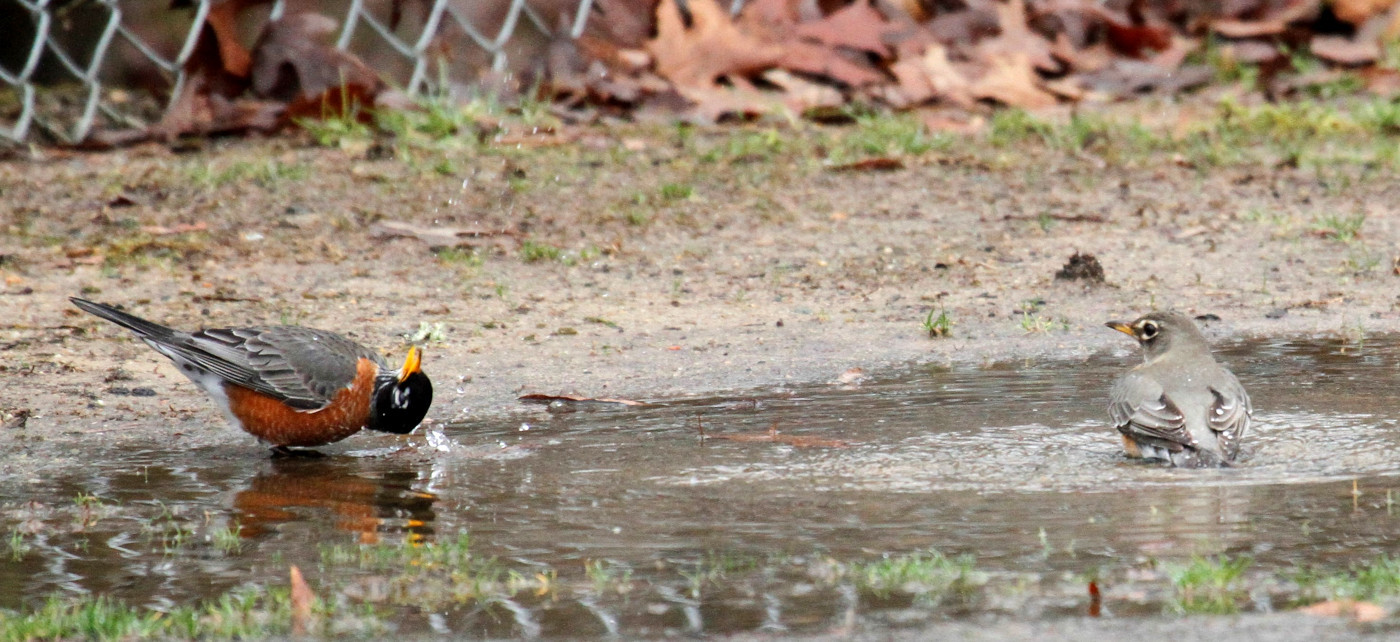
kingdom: Animalia
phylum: Chordata
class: Aves
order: Passeriformes
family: Turdidae
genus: Turdus
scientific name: Turdus migratorius
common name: American robin
